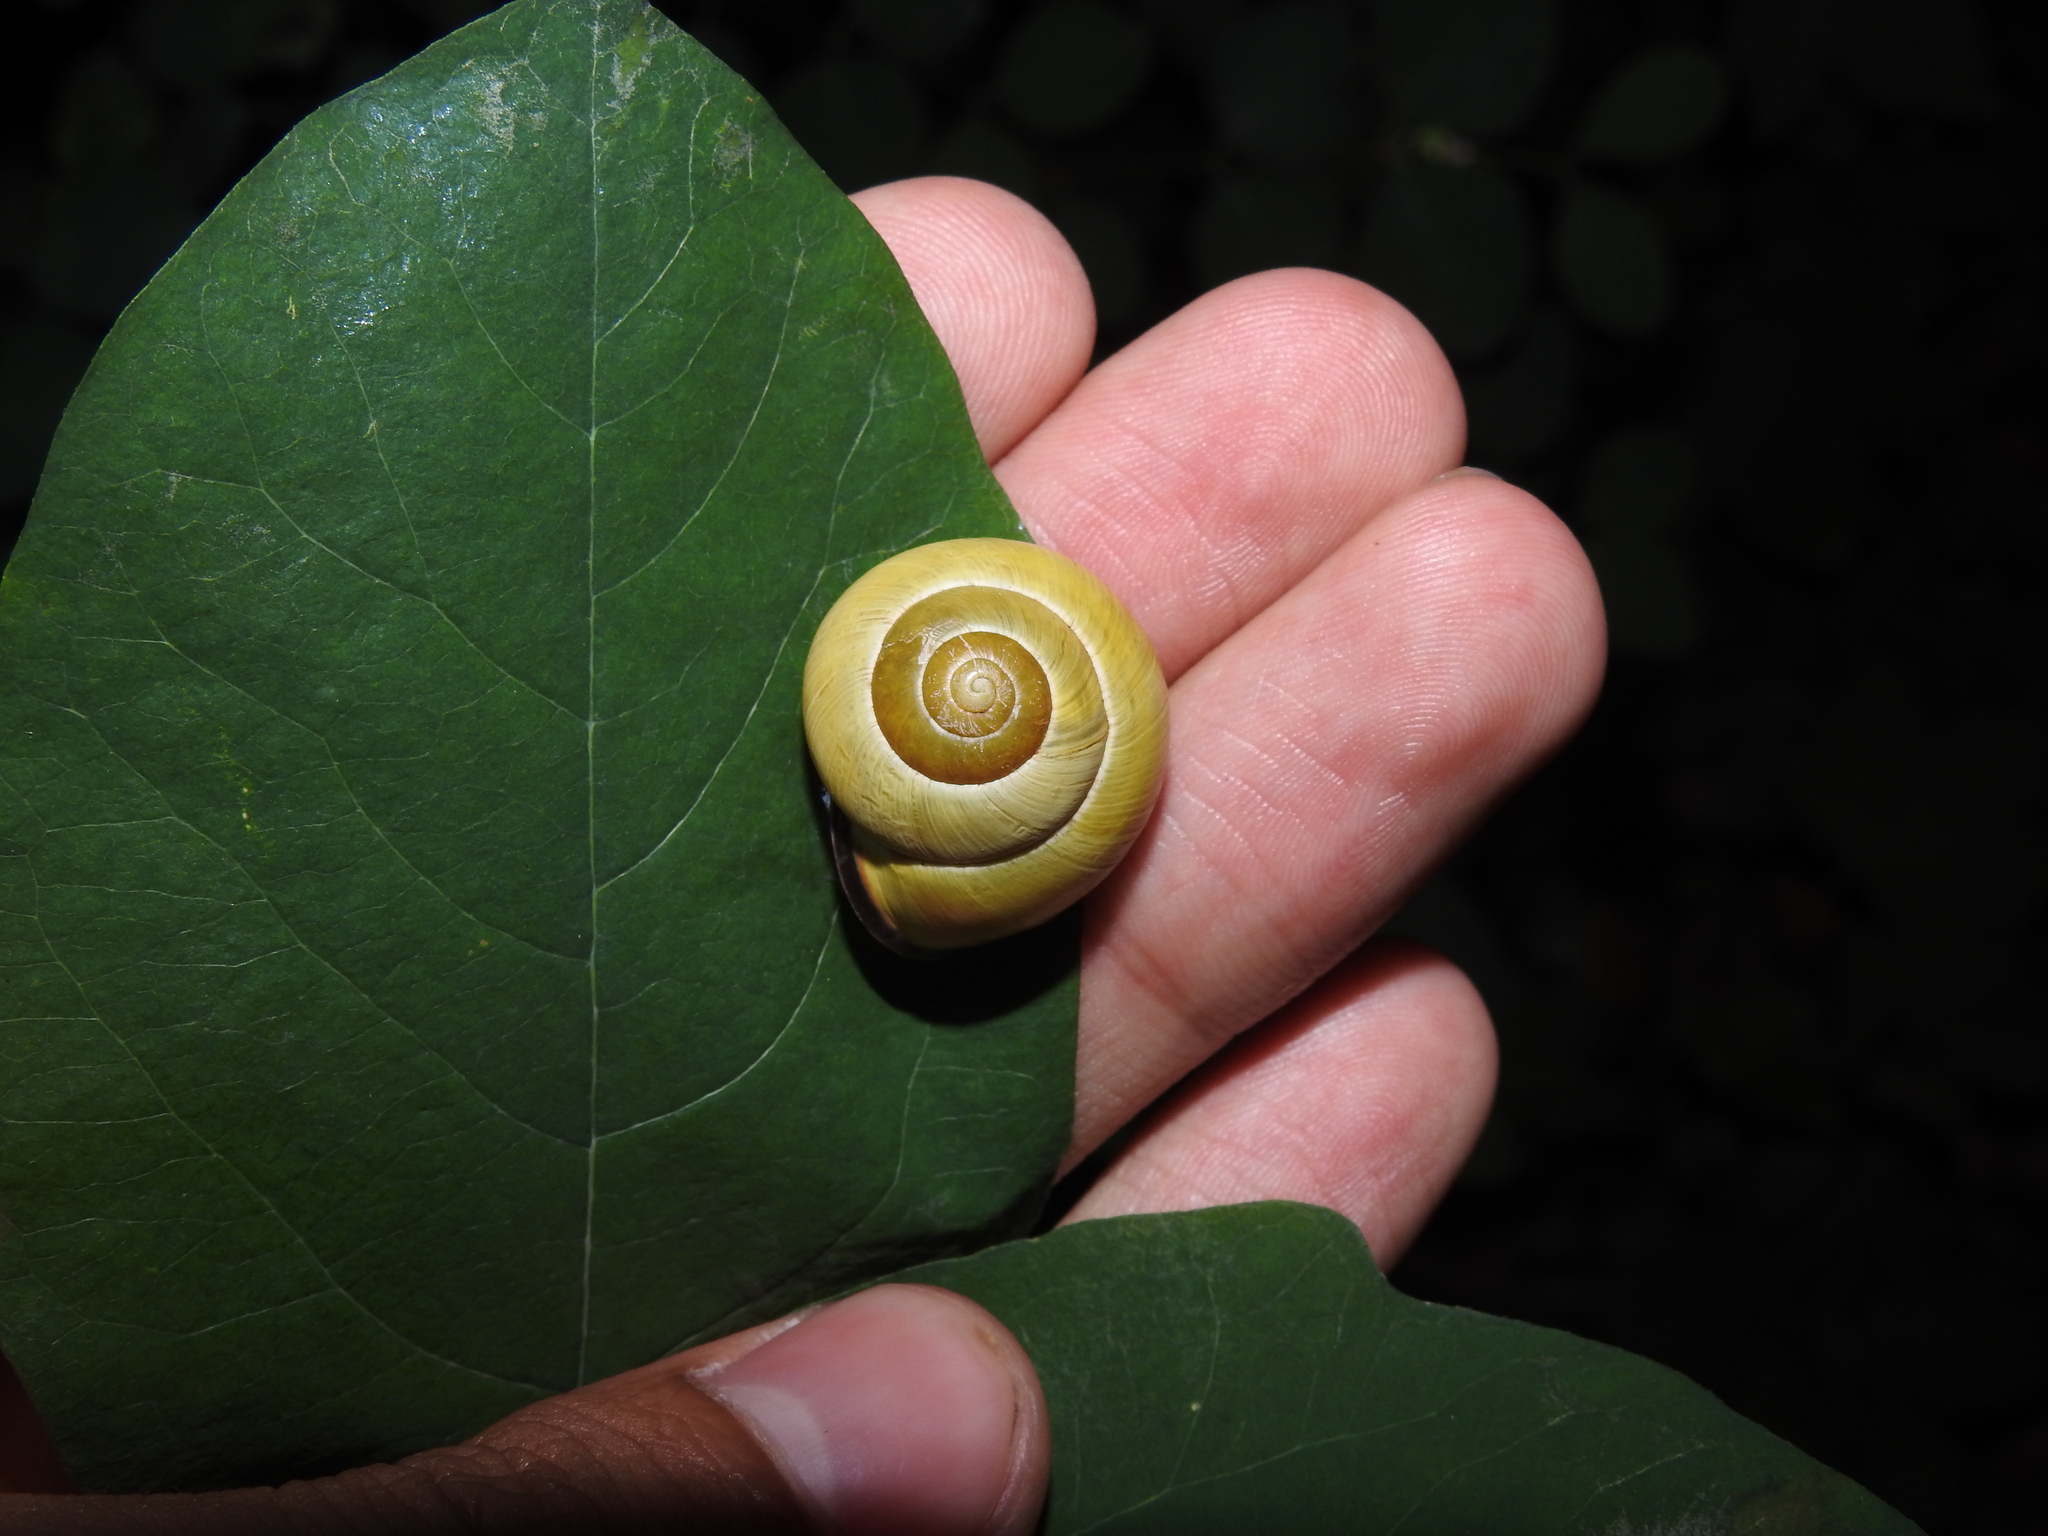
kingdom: Animalia
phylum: Mollusca
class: Gastropoda
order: Stylommatophora
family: Helicidae
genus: Cepaea
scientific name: Cepaea nemoralis
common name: Grovesnail
